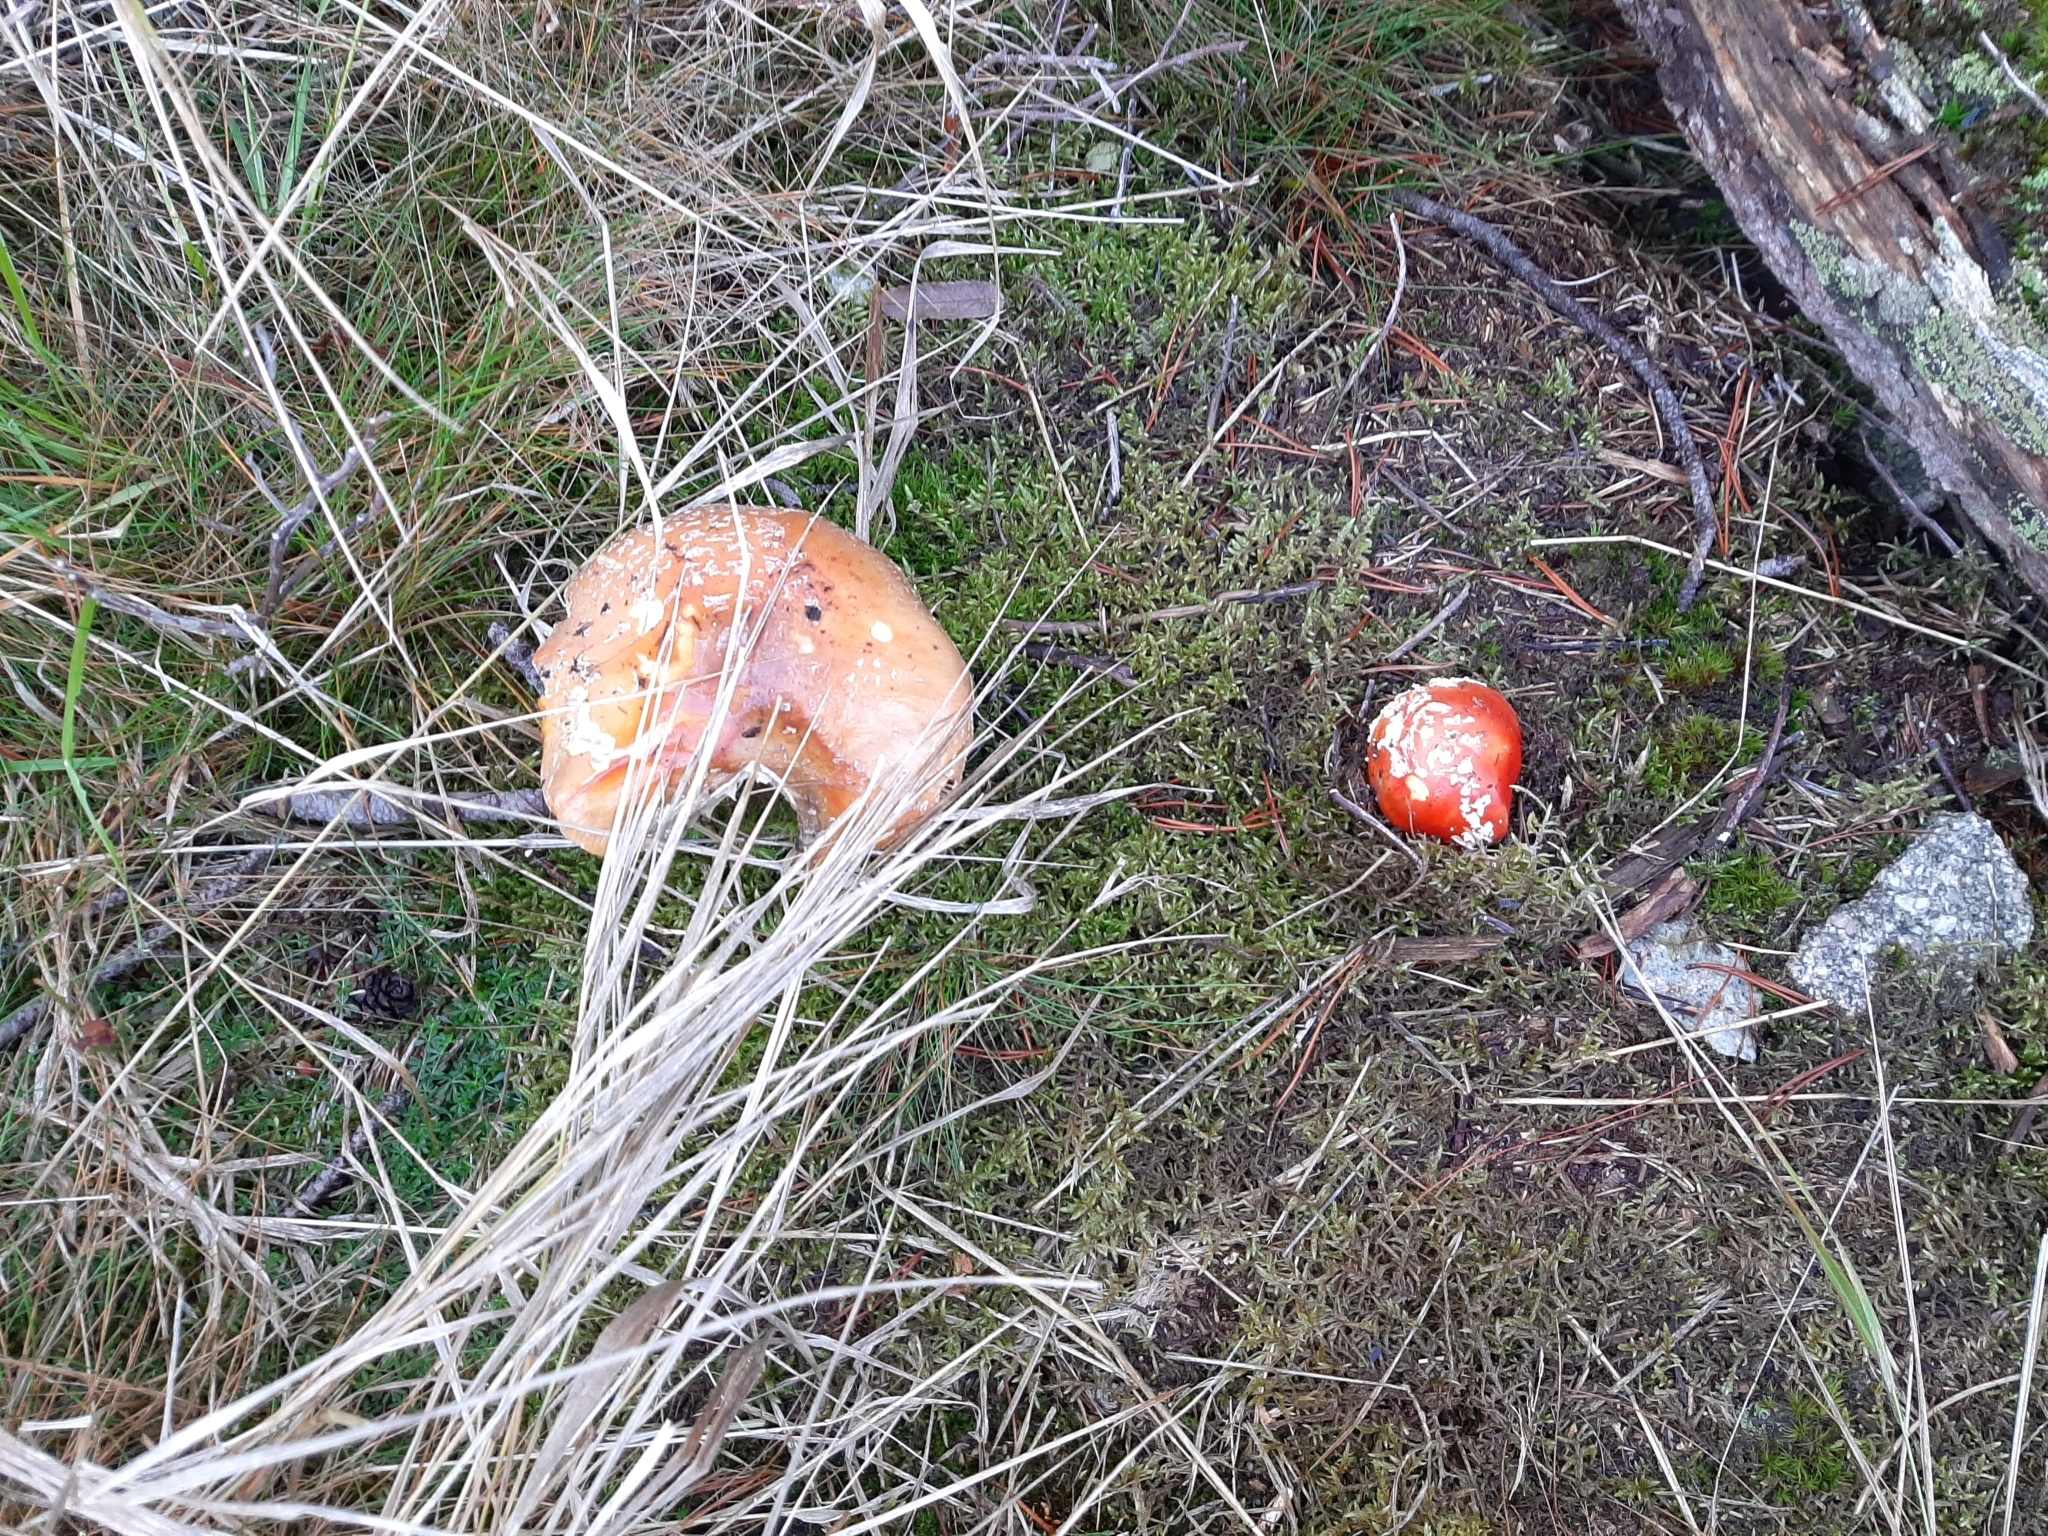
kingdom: Fungi
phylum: Basidiomycota
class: Agaricomycetes
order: Agaricales
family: Amanitaceae
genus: Amanita
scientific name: Amanita muscaria
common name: Fly agaric
